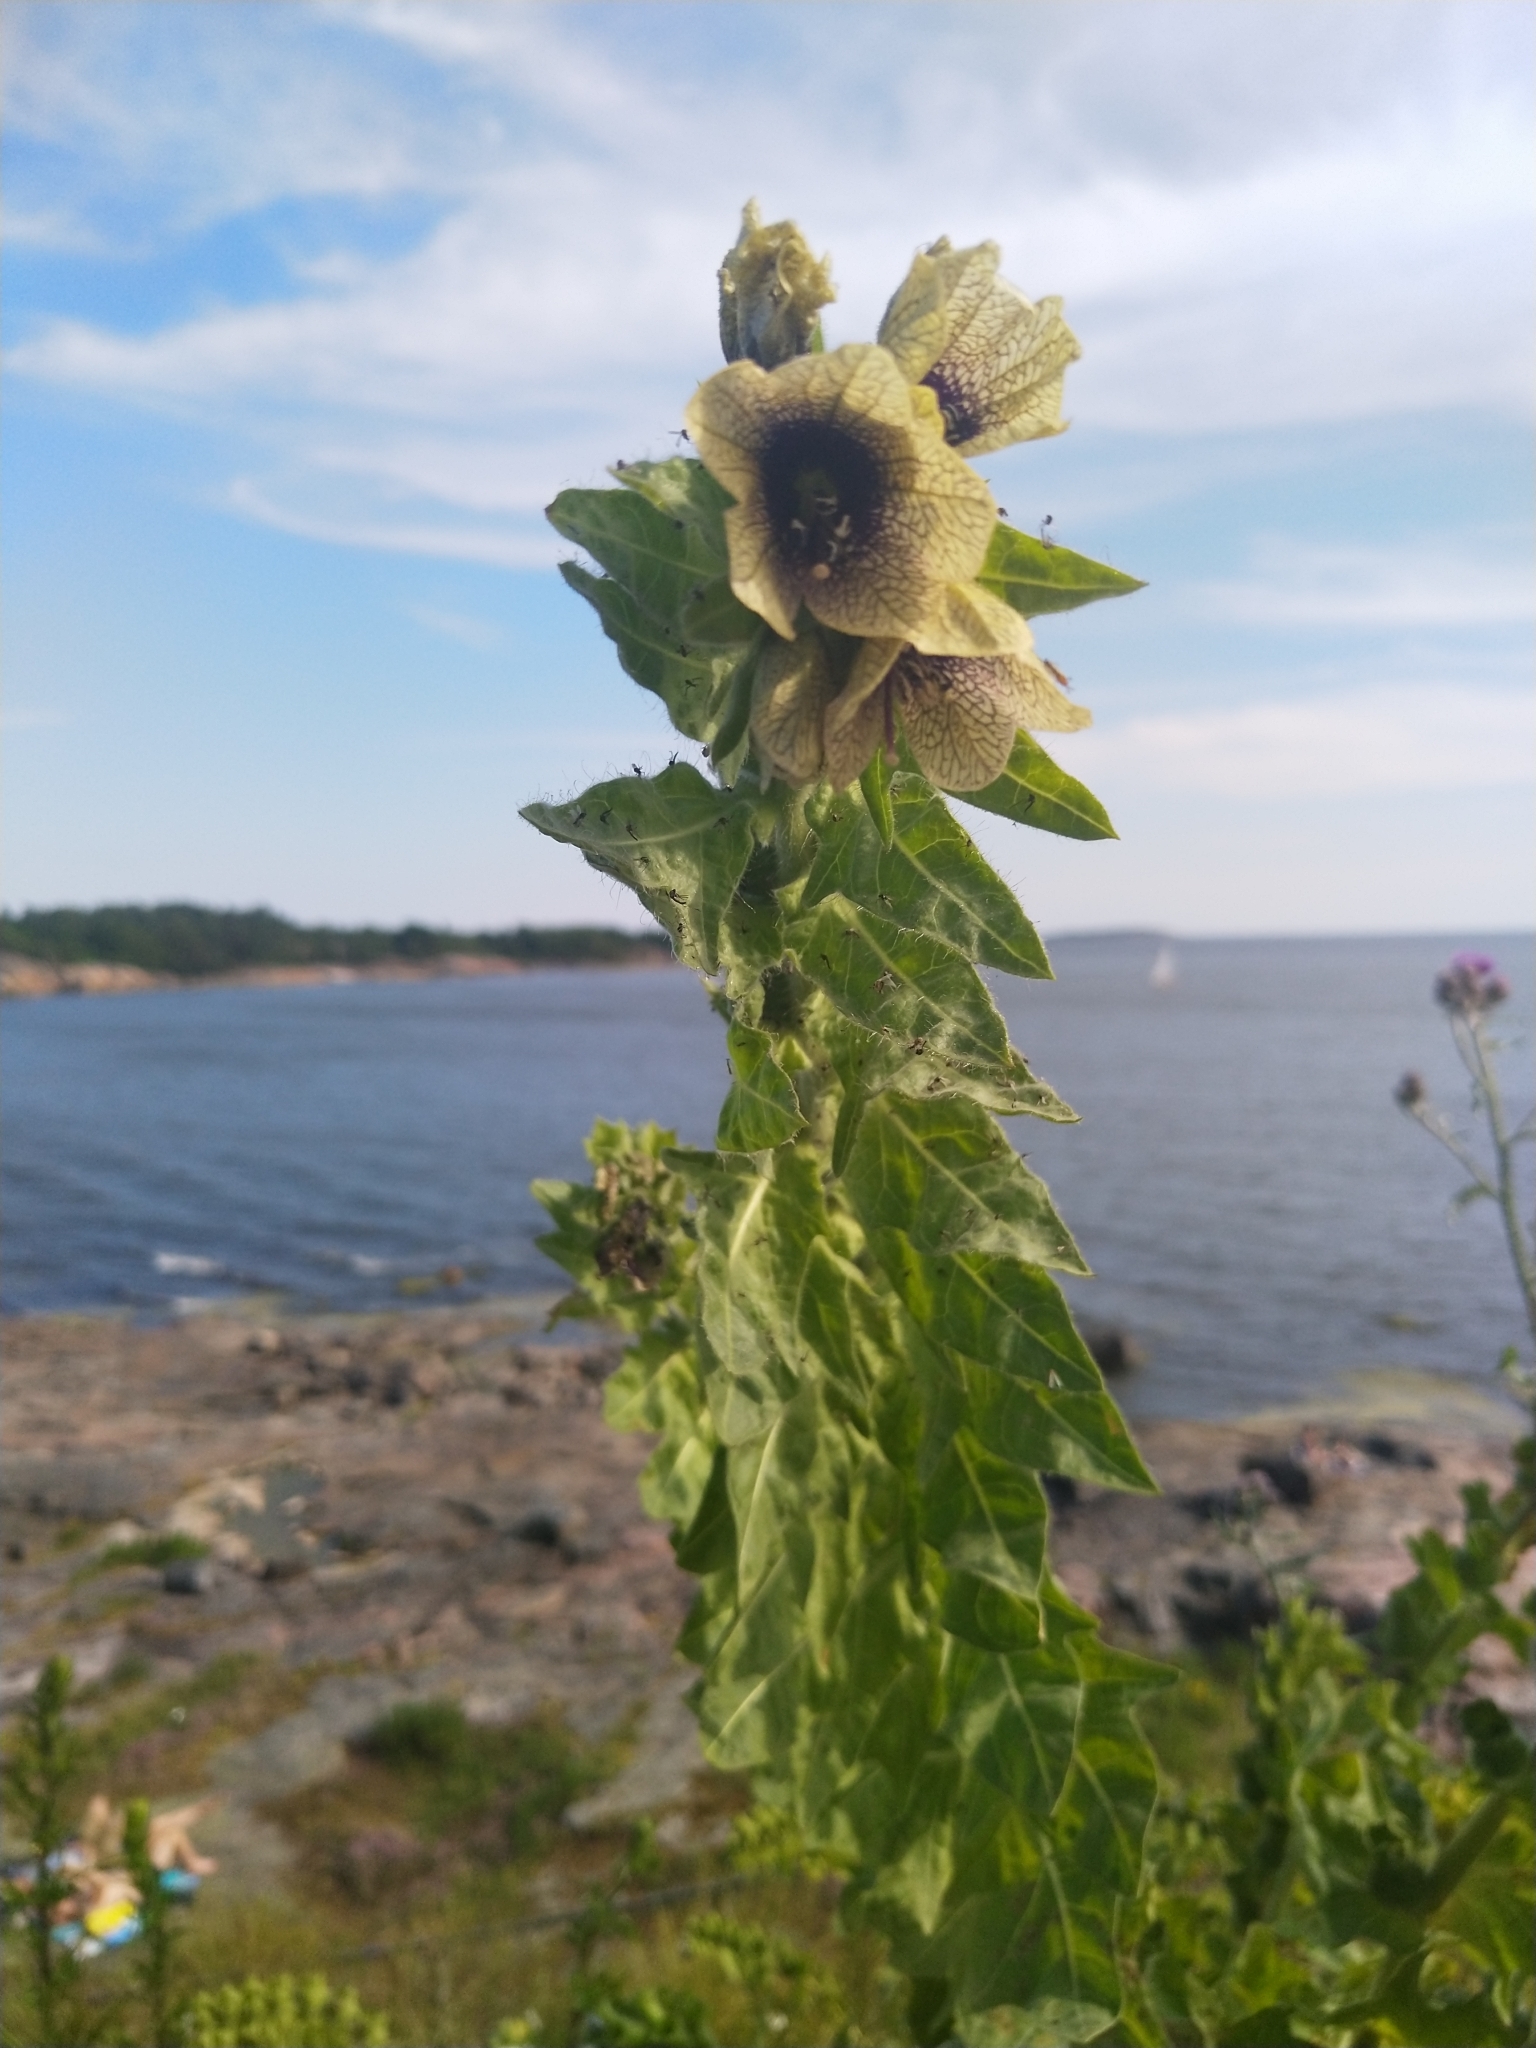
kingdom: Plantae
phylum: Tracheophyta
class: Magnoliopsida
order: Solanales
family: Solanaceae
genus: Hyoscyamus
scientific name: Hyoscyamus niger
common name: Henbane
